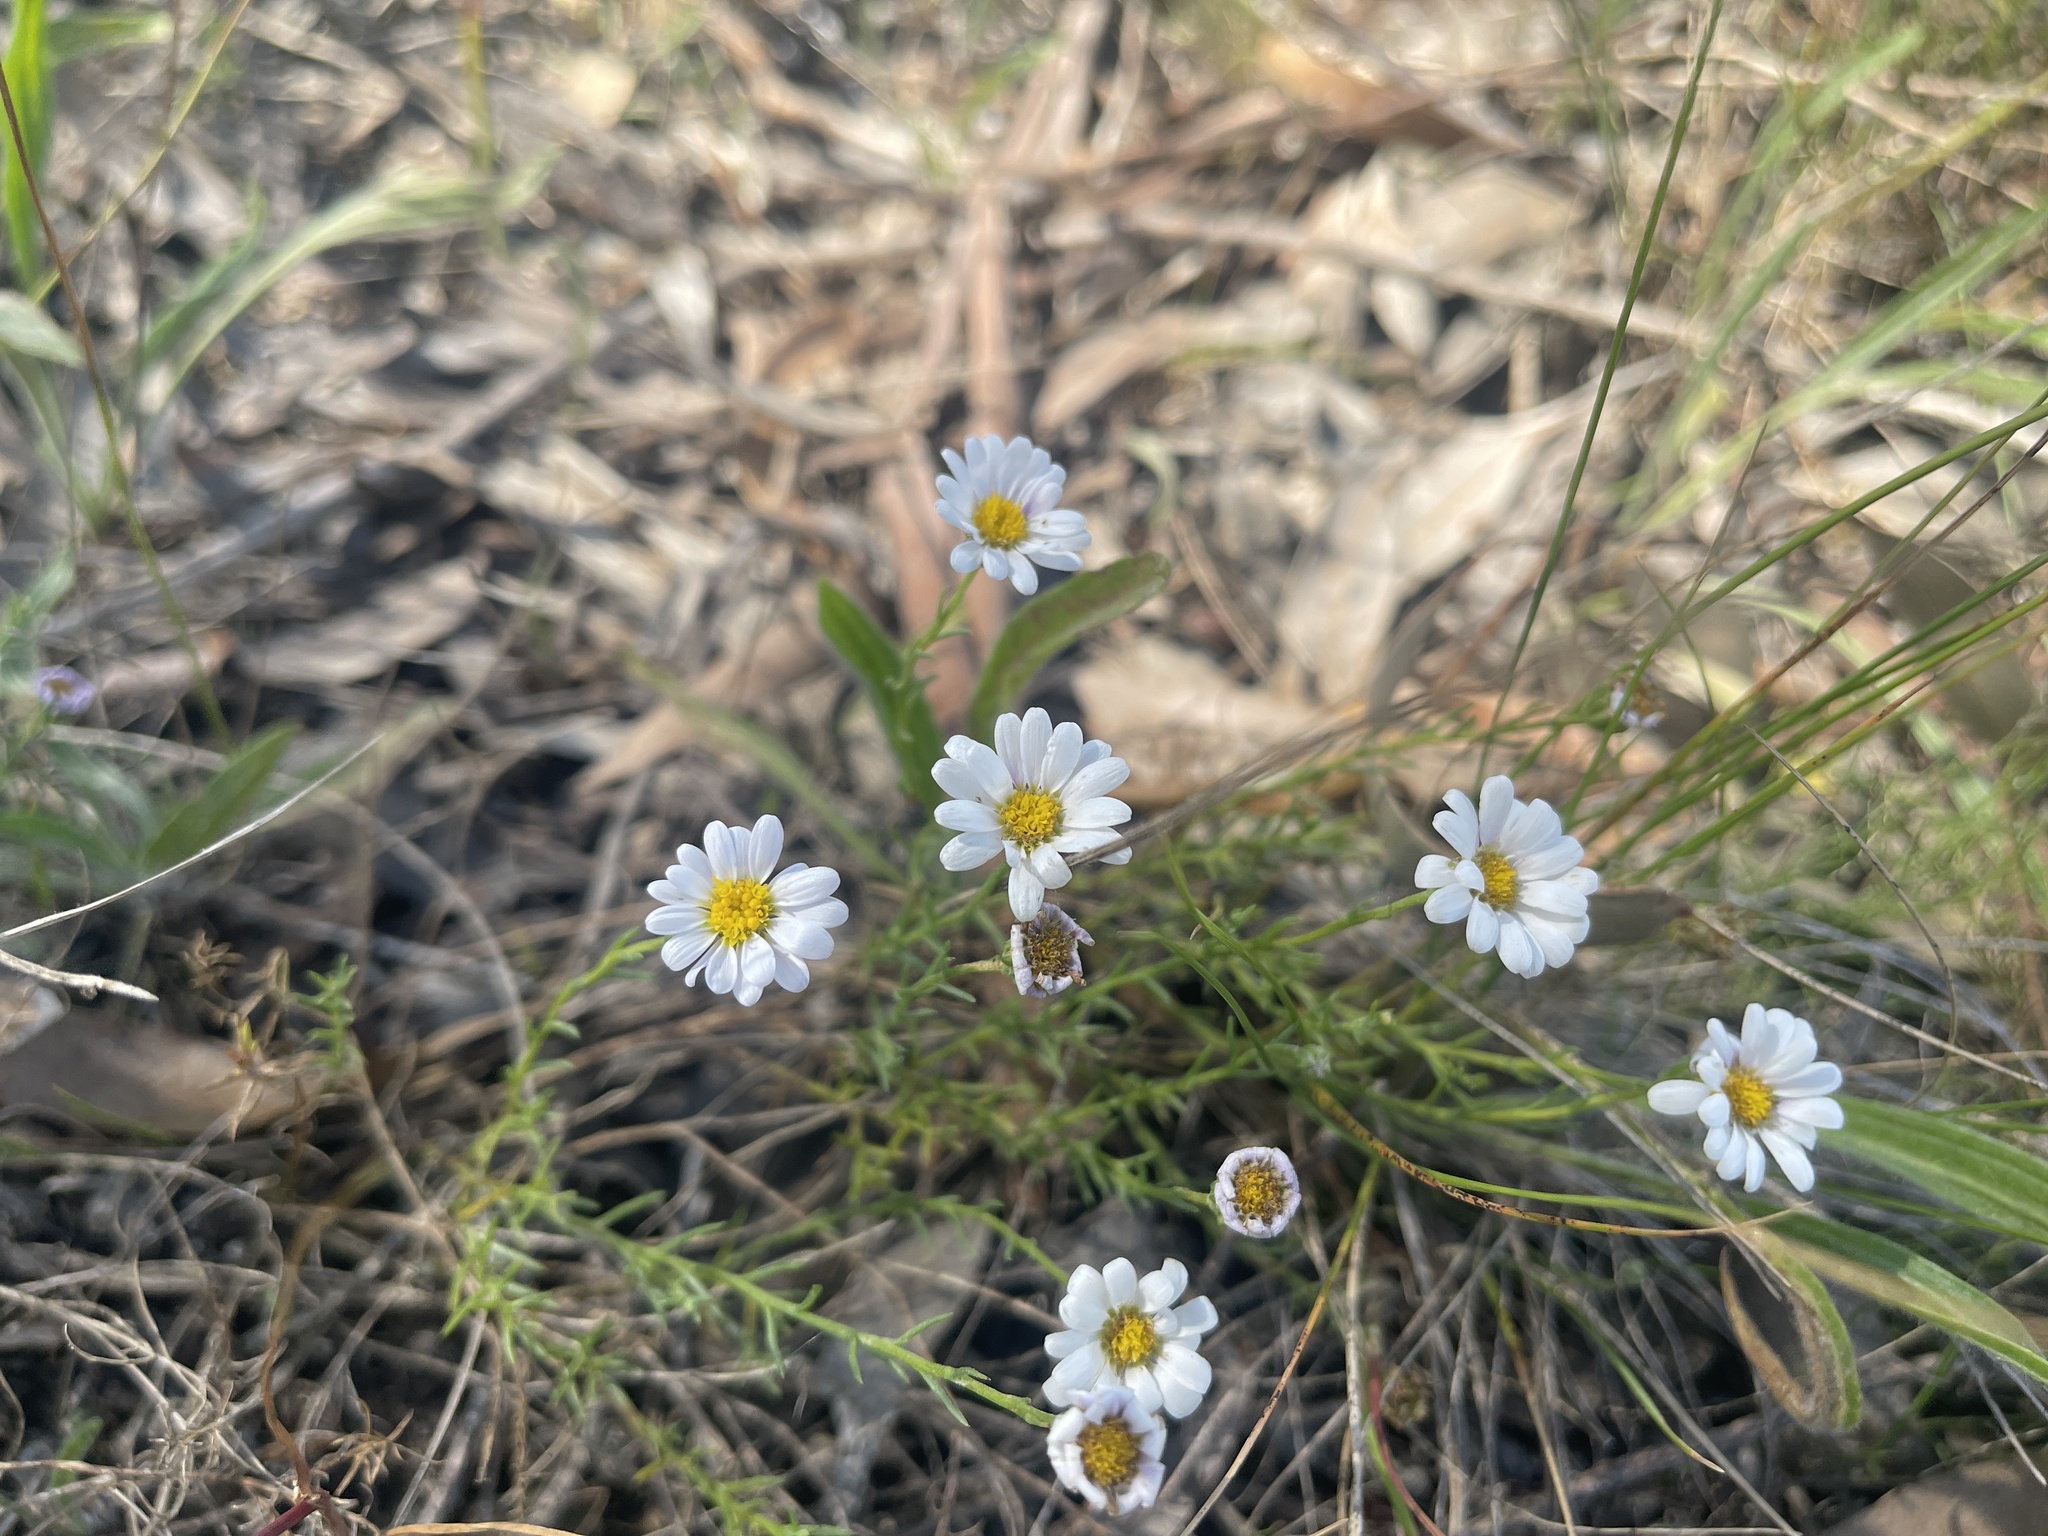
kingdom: Plantae
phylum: Tracheophyta
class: Magnoliopsida
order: Asterales
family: Asteraceae
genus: Minuria
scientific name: Minuria leptophylla
